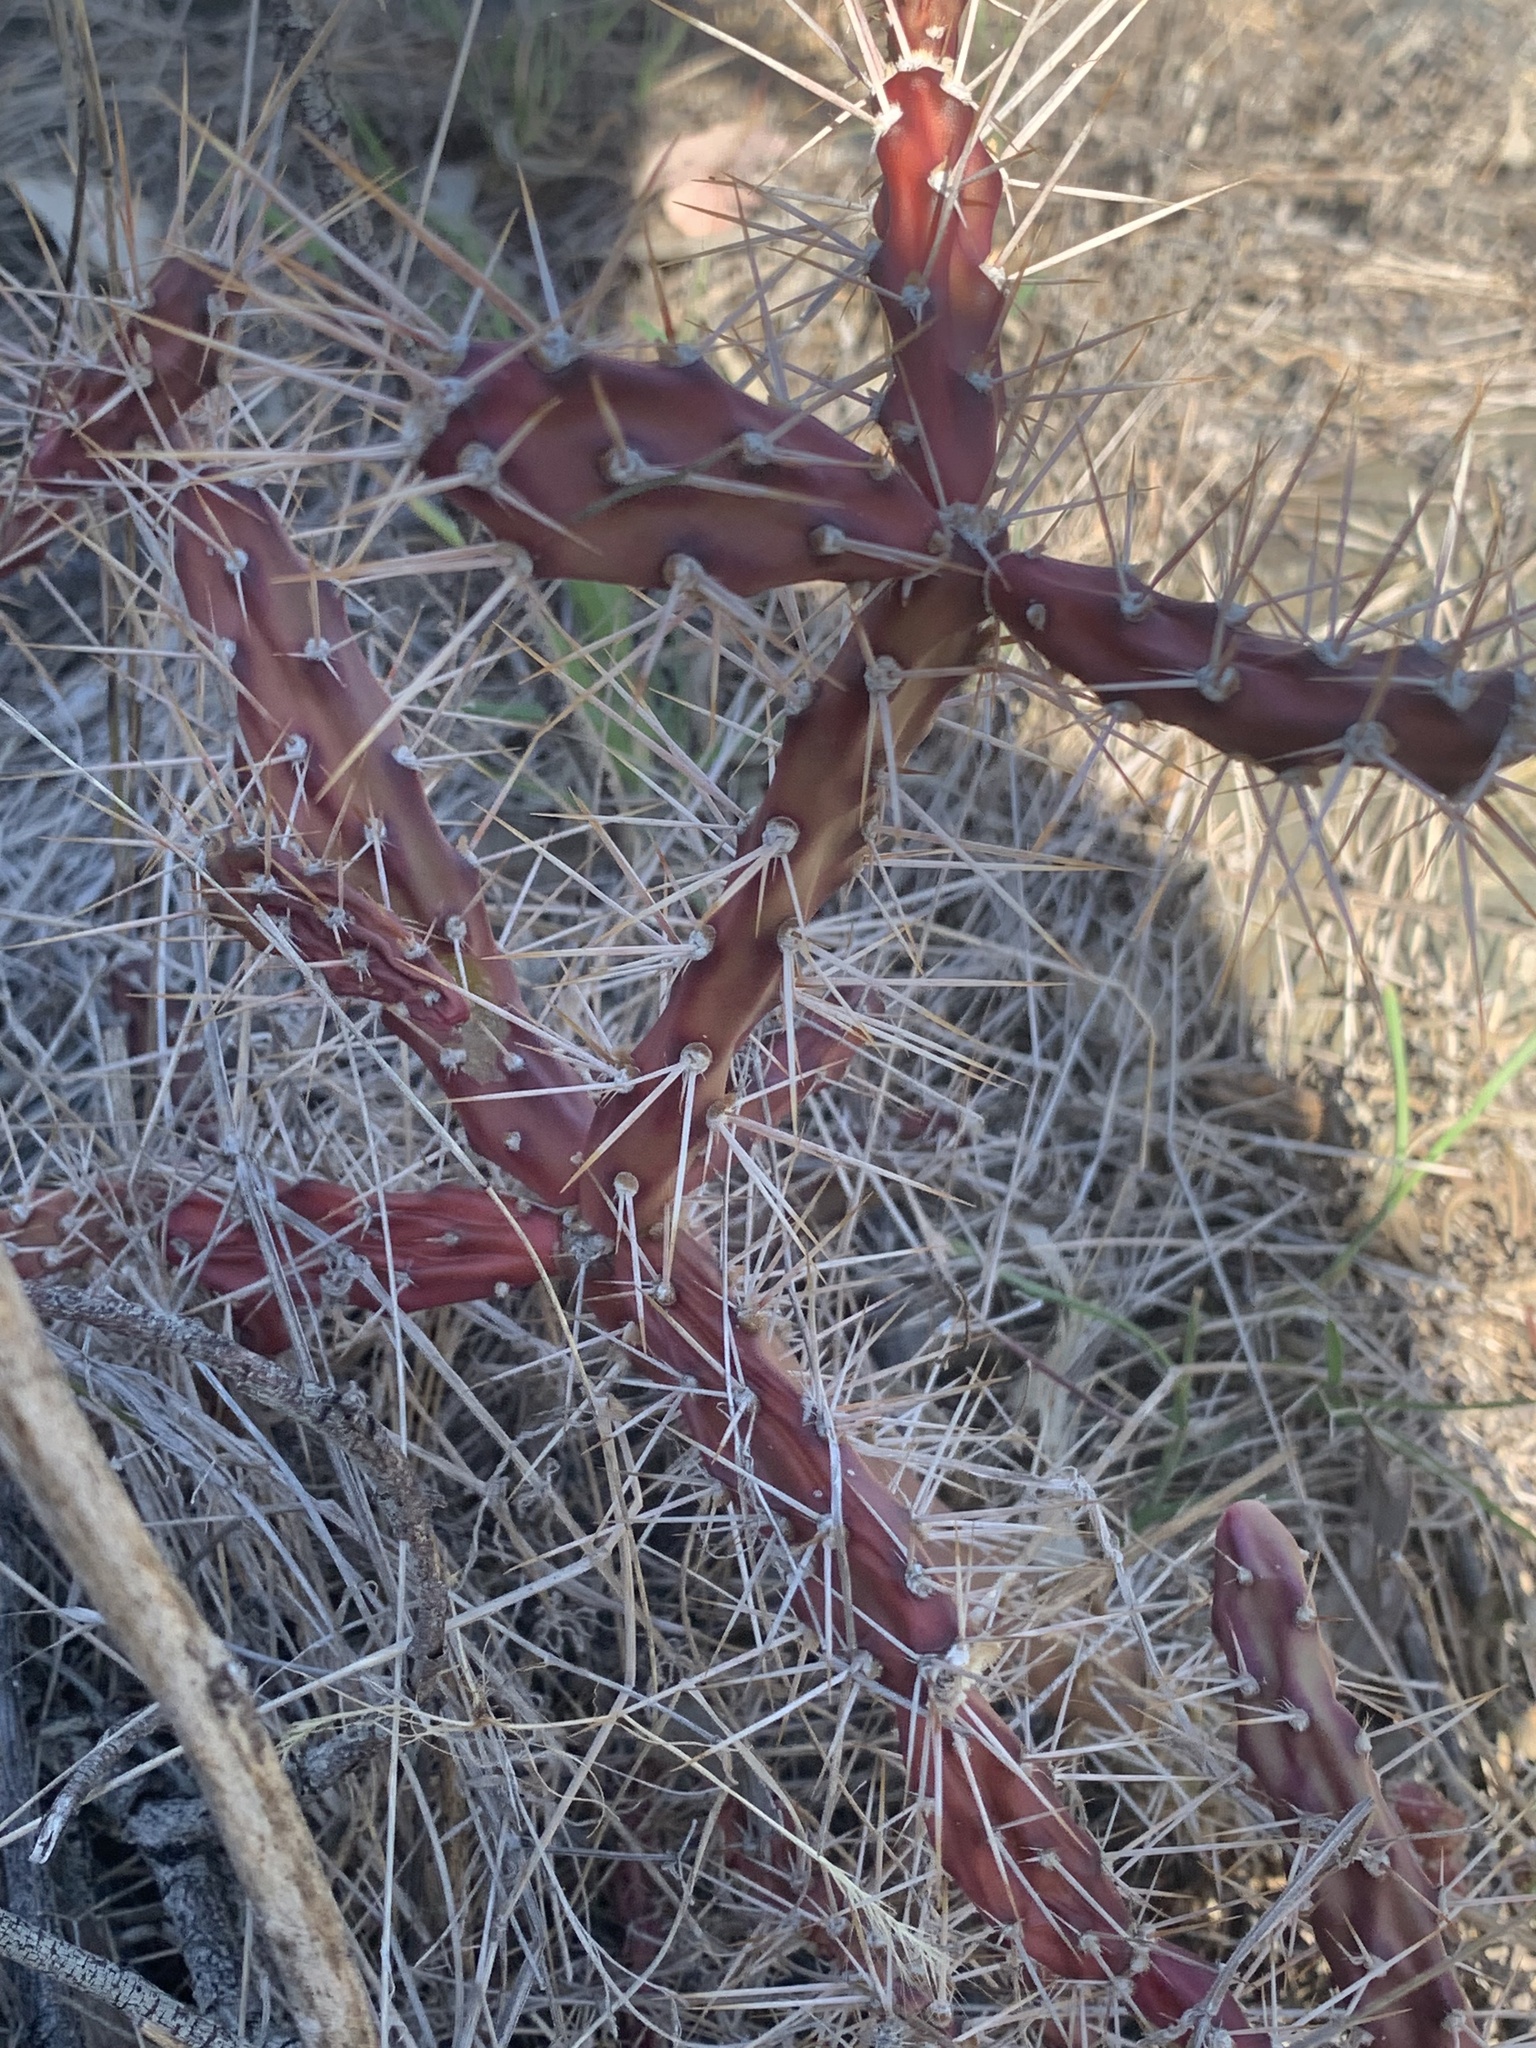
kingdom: Plantae
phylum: Tracheophyta
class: Magnoliopsida
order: Caryophyllales
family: Cactaceae
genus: Opuntia
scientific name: Opuntia aurantiaca
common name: Jointed pricklypear
